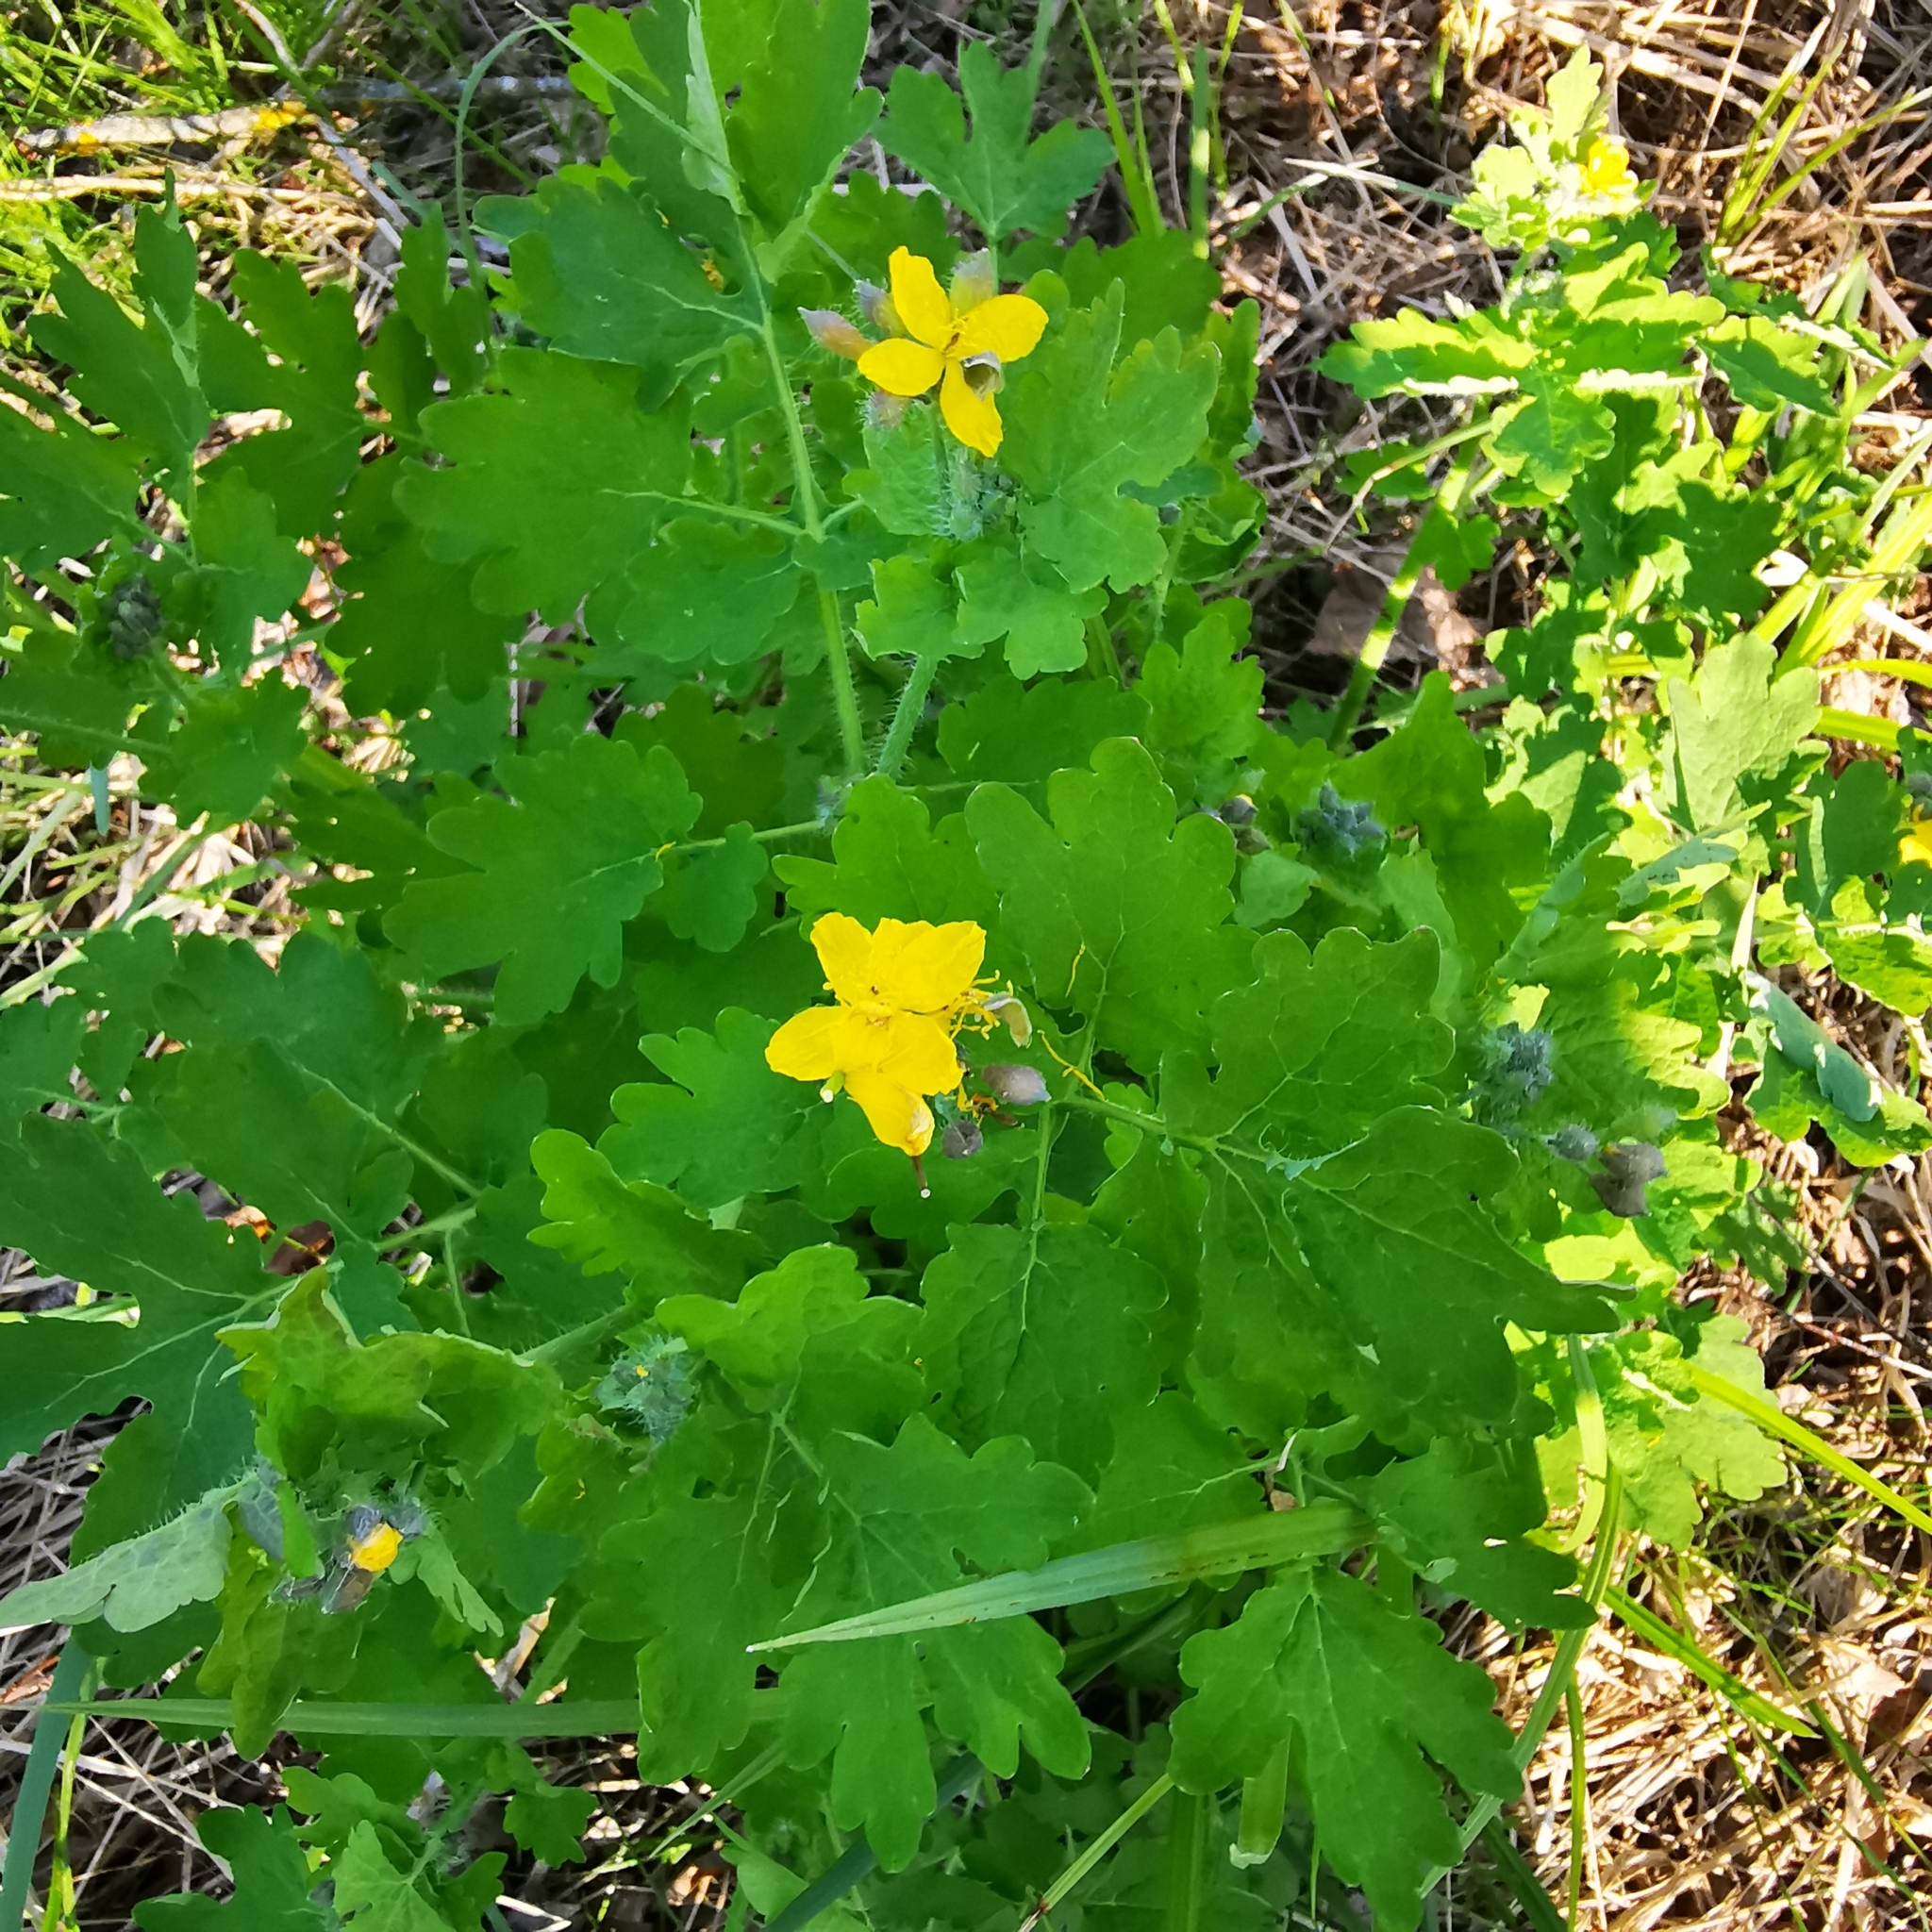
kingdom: Plantae
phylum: Tracheophyta
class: Magnoliopsida
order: Ranunculales
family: Papaveraceae
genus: Chelidonium
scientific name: Chelidonium majus
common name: Greater celandine
